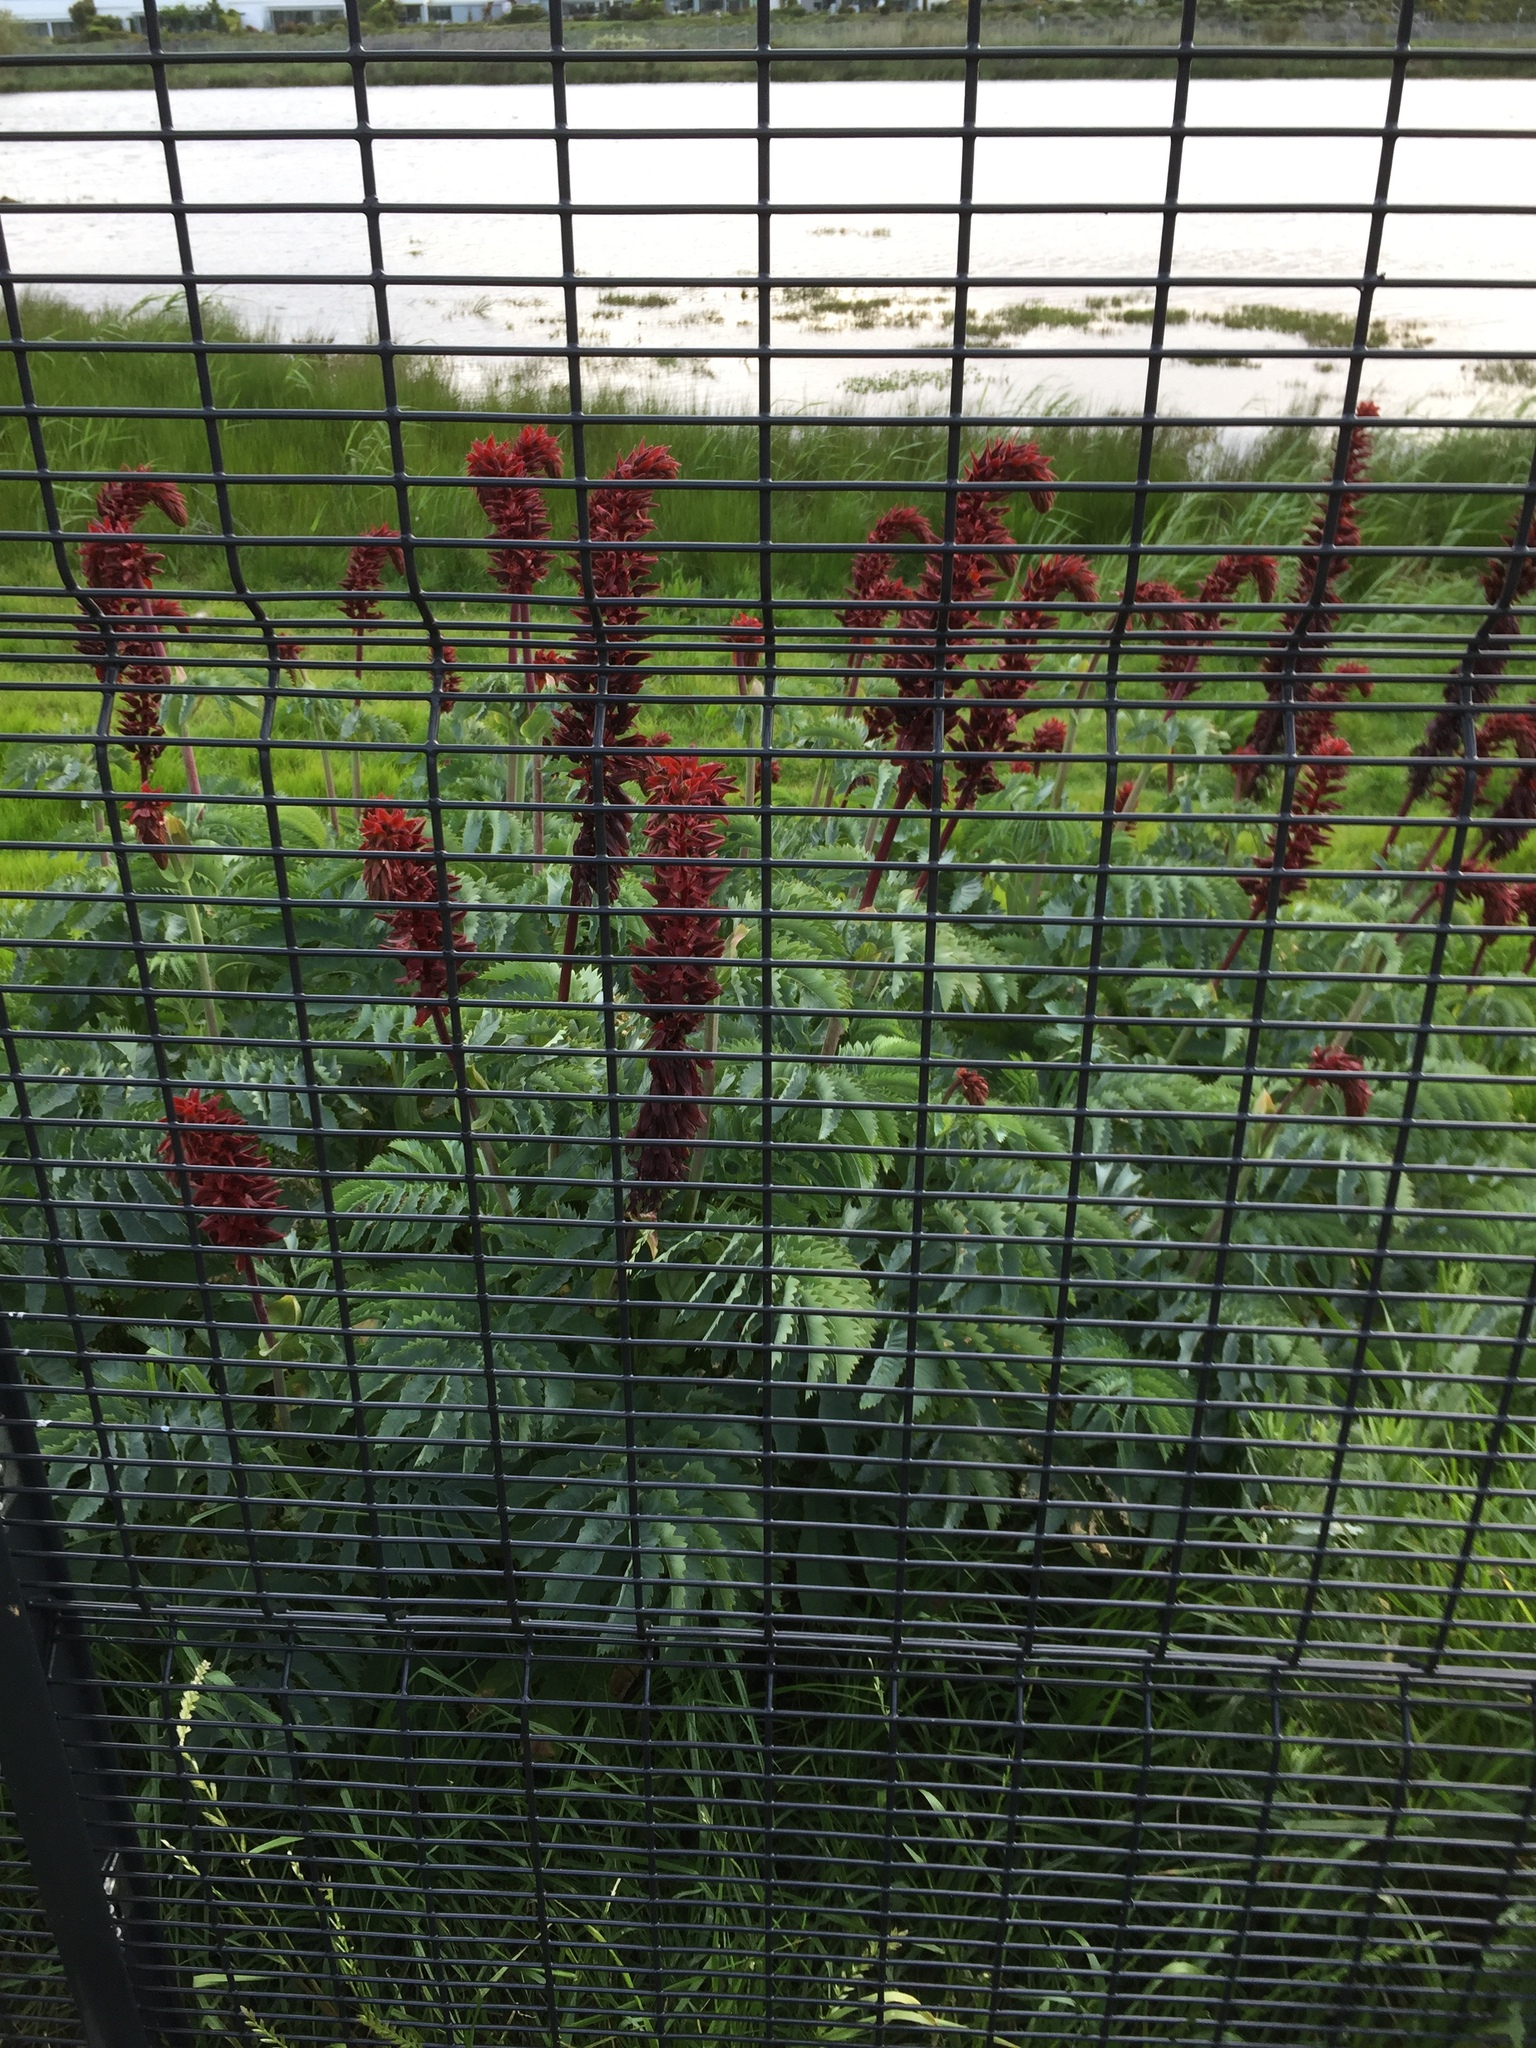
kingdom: Plantae
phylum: Tracheophyta
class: Magnoliopsida
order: Geraniales
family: Melianthaceae
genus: Melianthus
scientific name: Melianthus major
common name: Honey-flower
